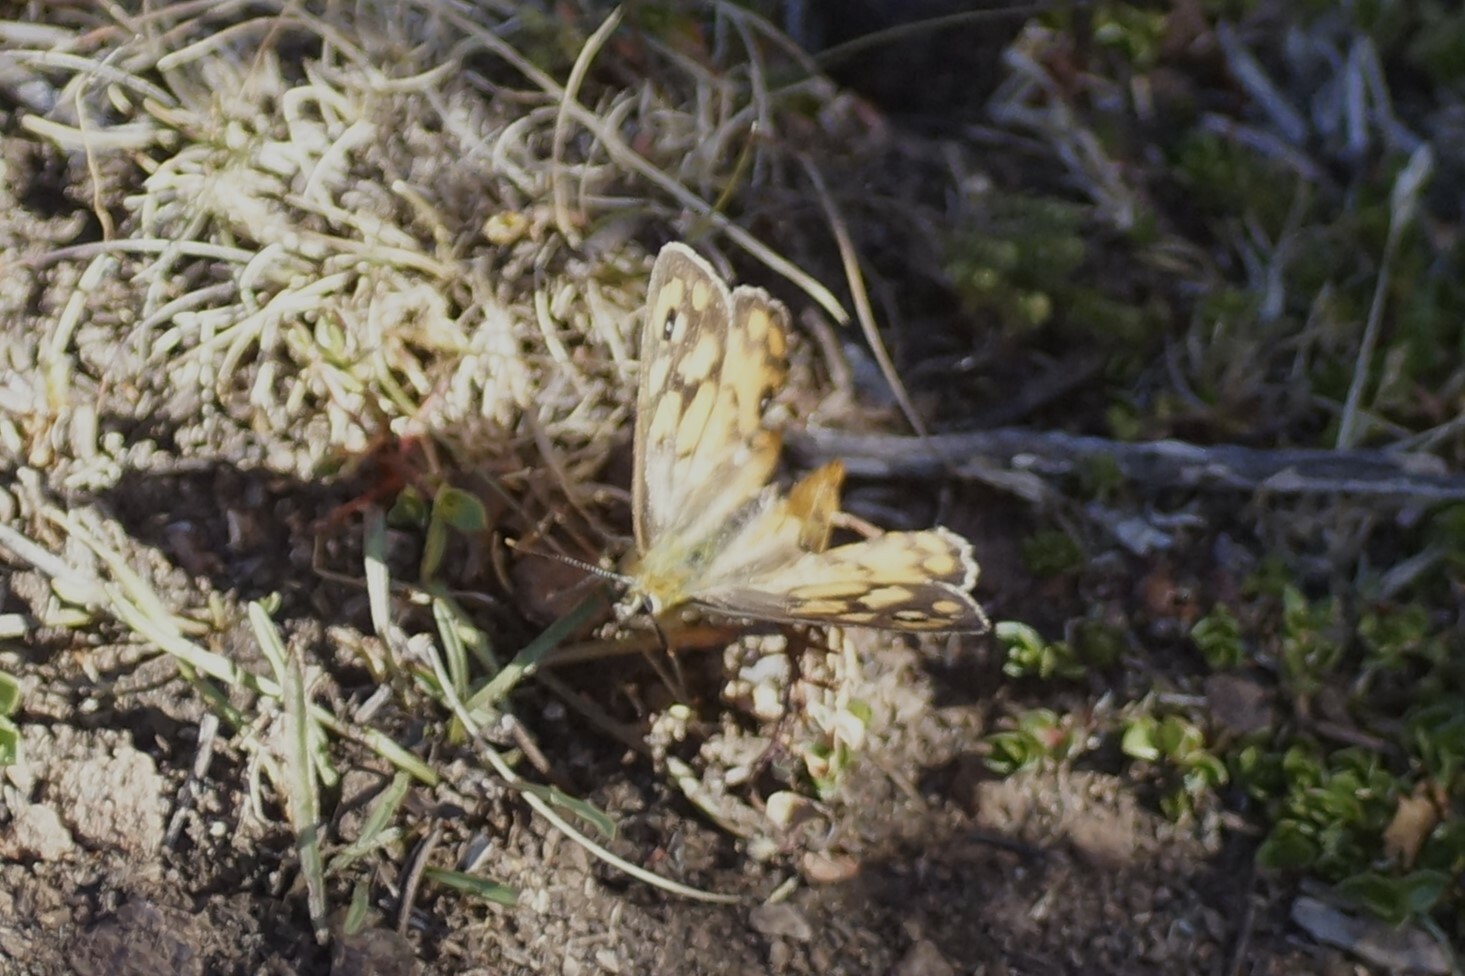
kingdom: Animalia
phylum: Arthropoda
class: Insecta
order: Lepidoptera
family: Nymphalidae
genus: Heteronympha
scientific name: Heteronympha penelope
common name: Shouldered brown
